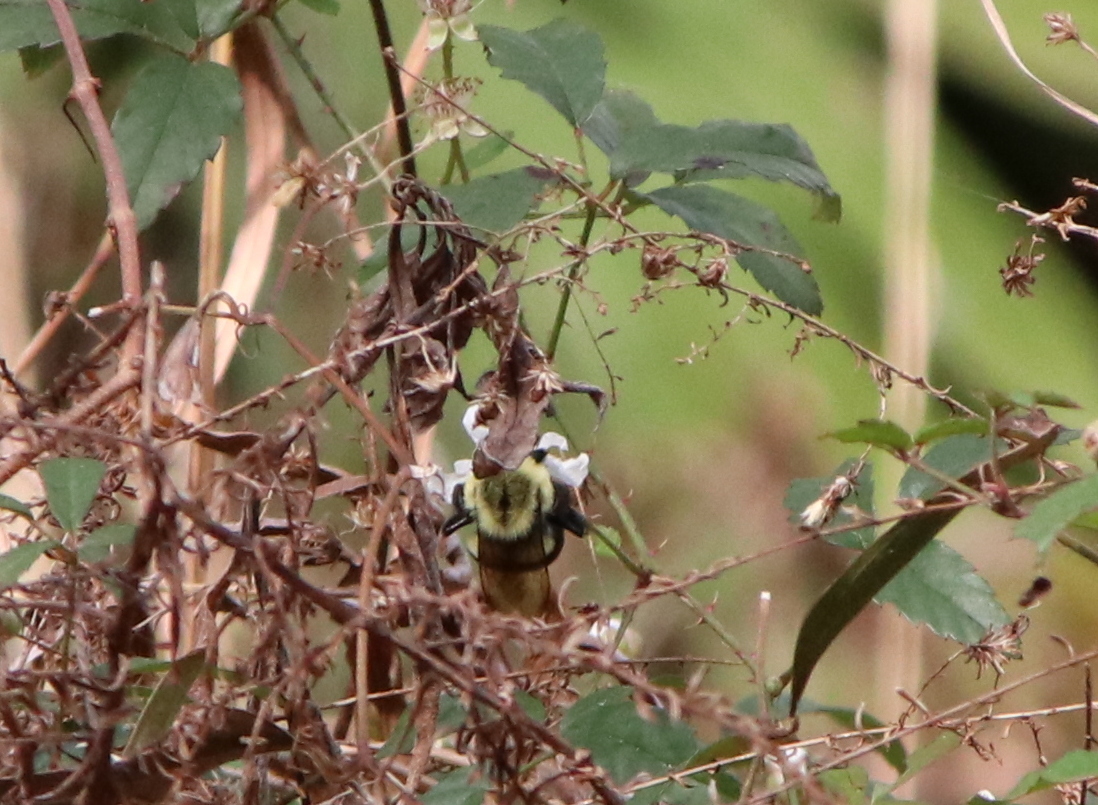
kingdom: Animalia
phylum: Arthropoda
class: Insecta
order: Hymenoptera
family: Apidae
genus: Bombus
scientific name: Bombus impatiens
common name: Common eastern bumble bee
